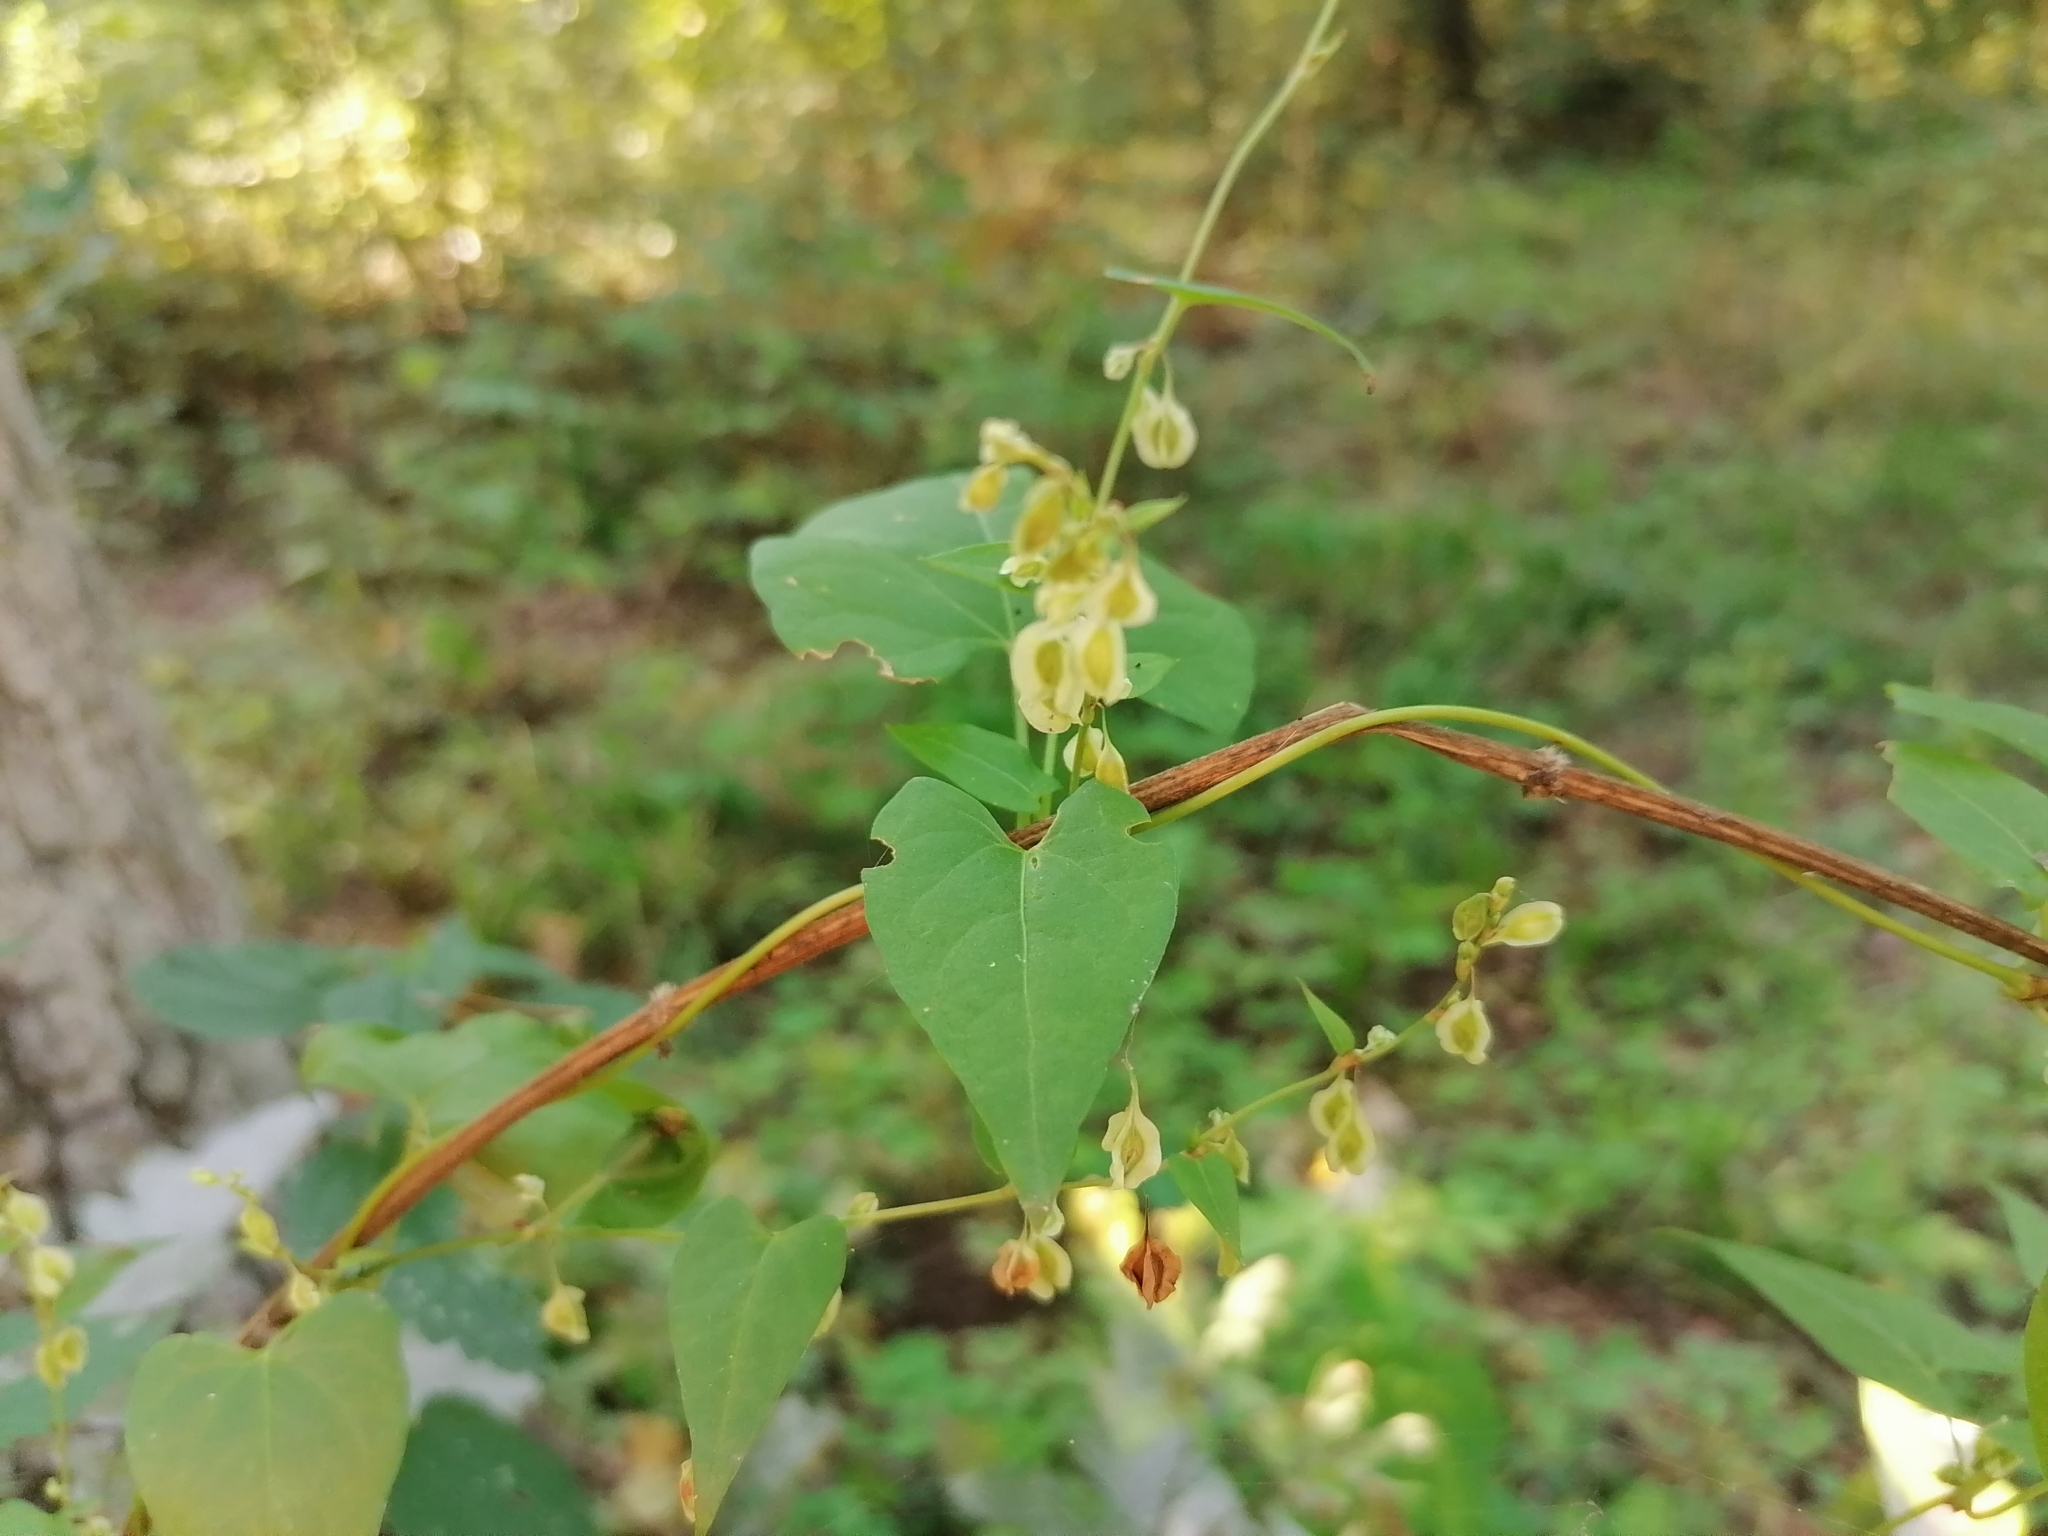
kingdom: Plantae
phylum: Tracheophyta
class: Magnoliopsida
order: Caryophyllales
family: Polygonaceae
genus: Fallopia
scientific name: Fallopia dumetorum
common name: Copse-bindweed
